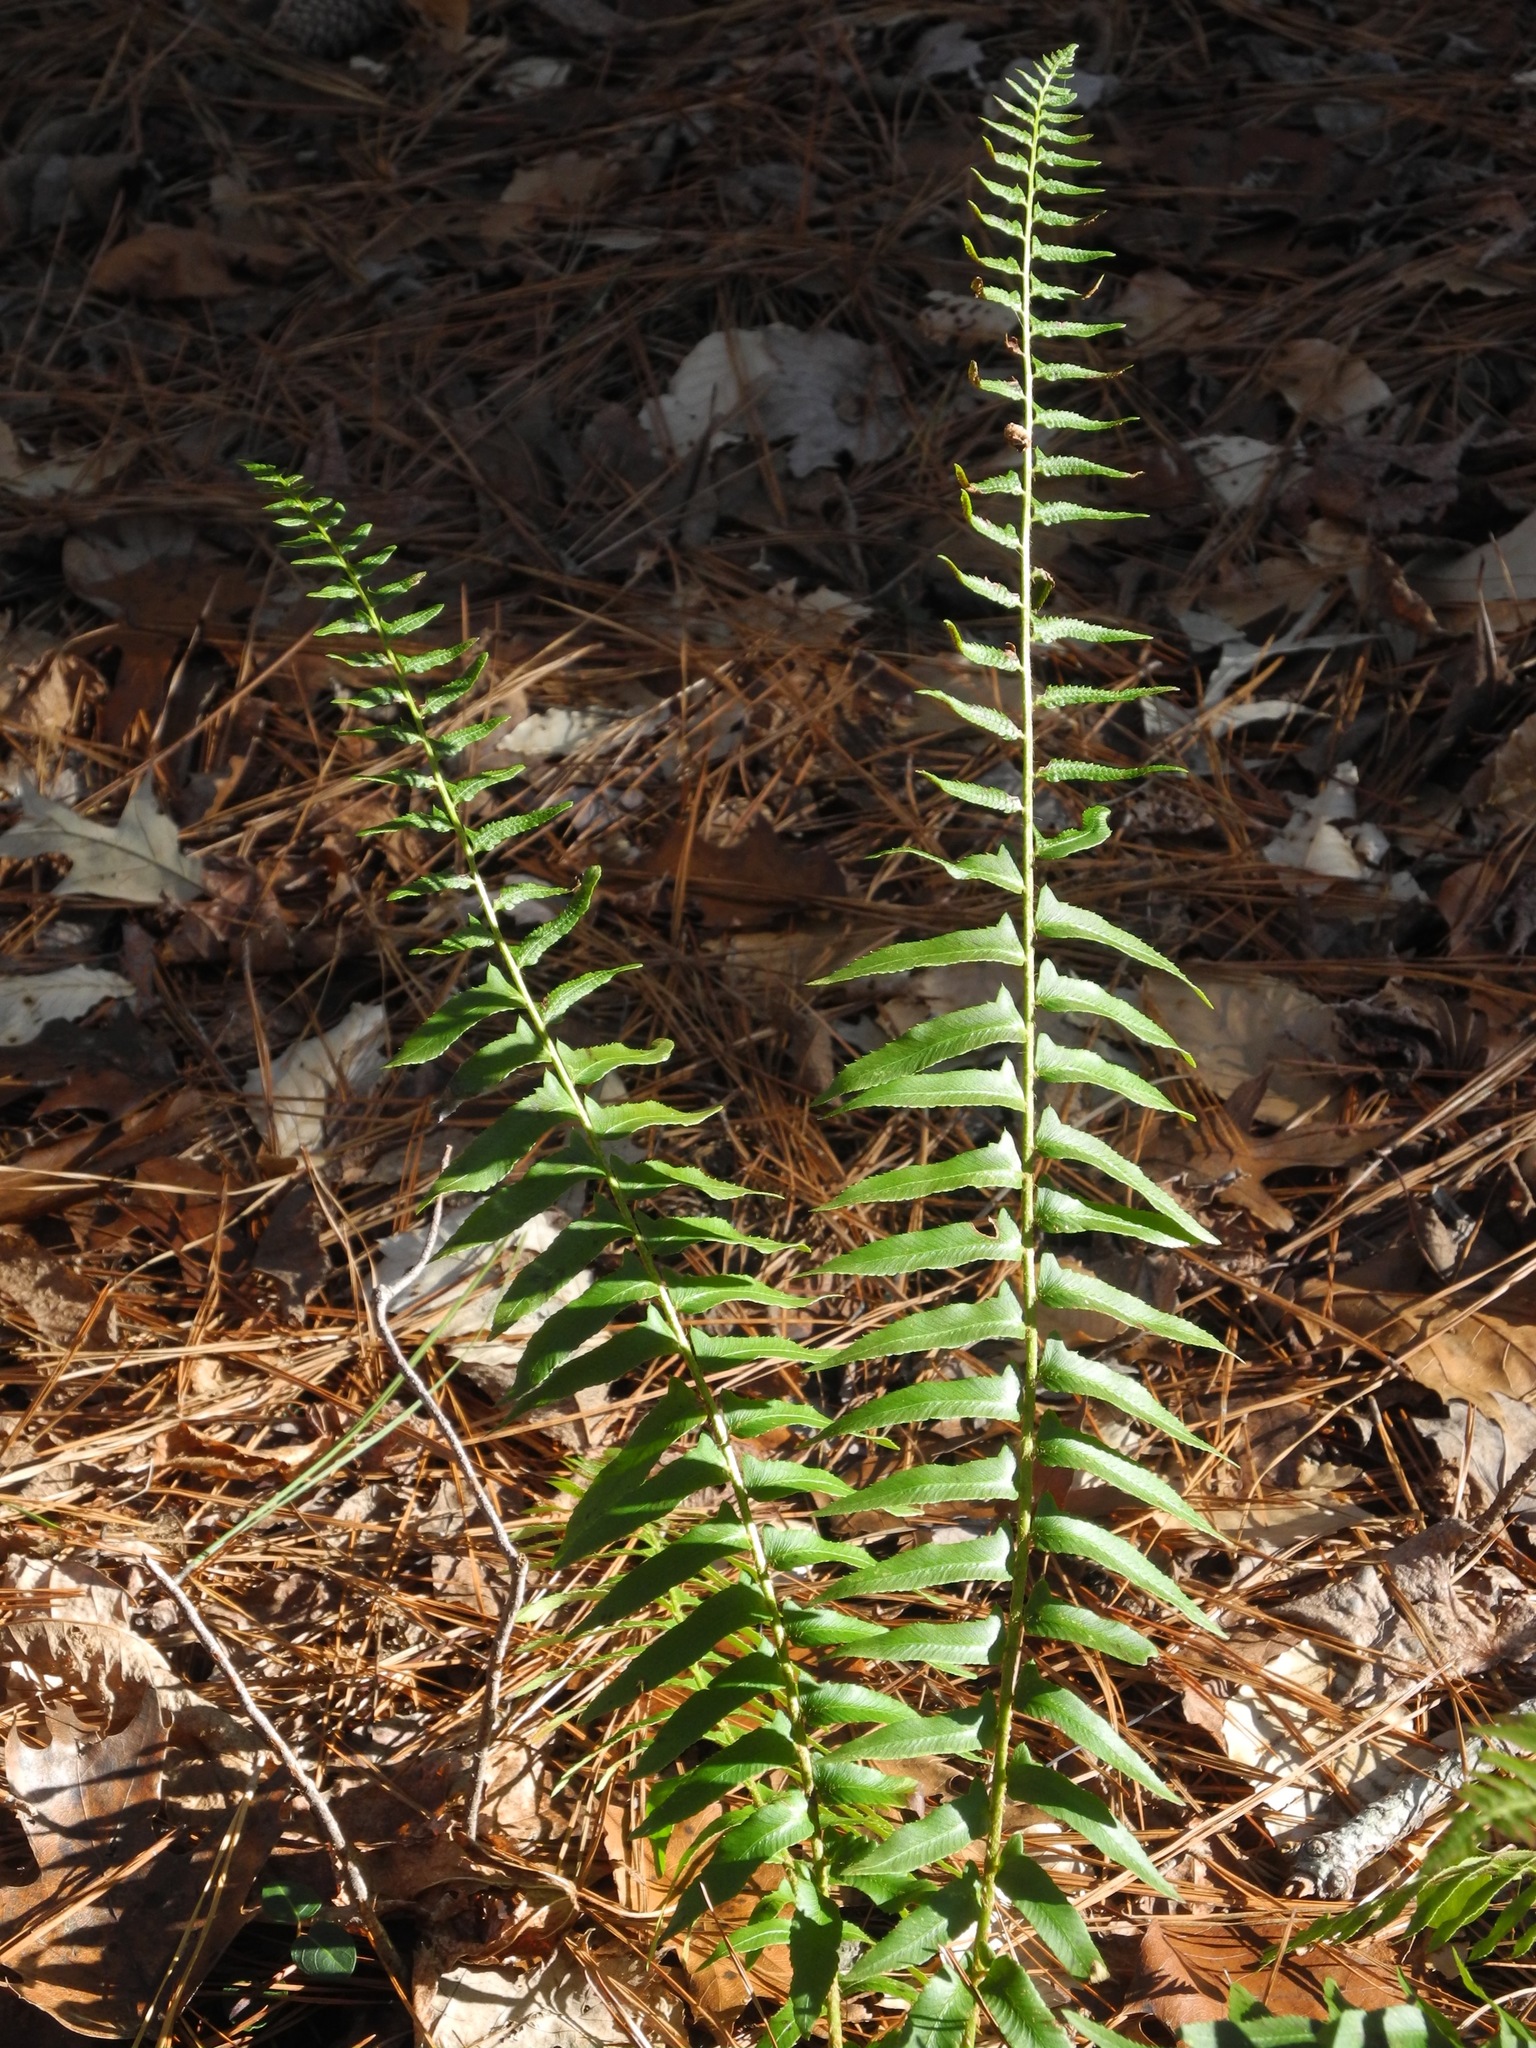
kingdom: Plantae
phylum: Tracheophyta
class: Polypodiopsida
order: Polypodiales
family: Dryopteridaceae
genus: Polystichum
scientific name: Polystichum acrostichoides
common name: Christmas fern
